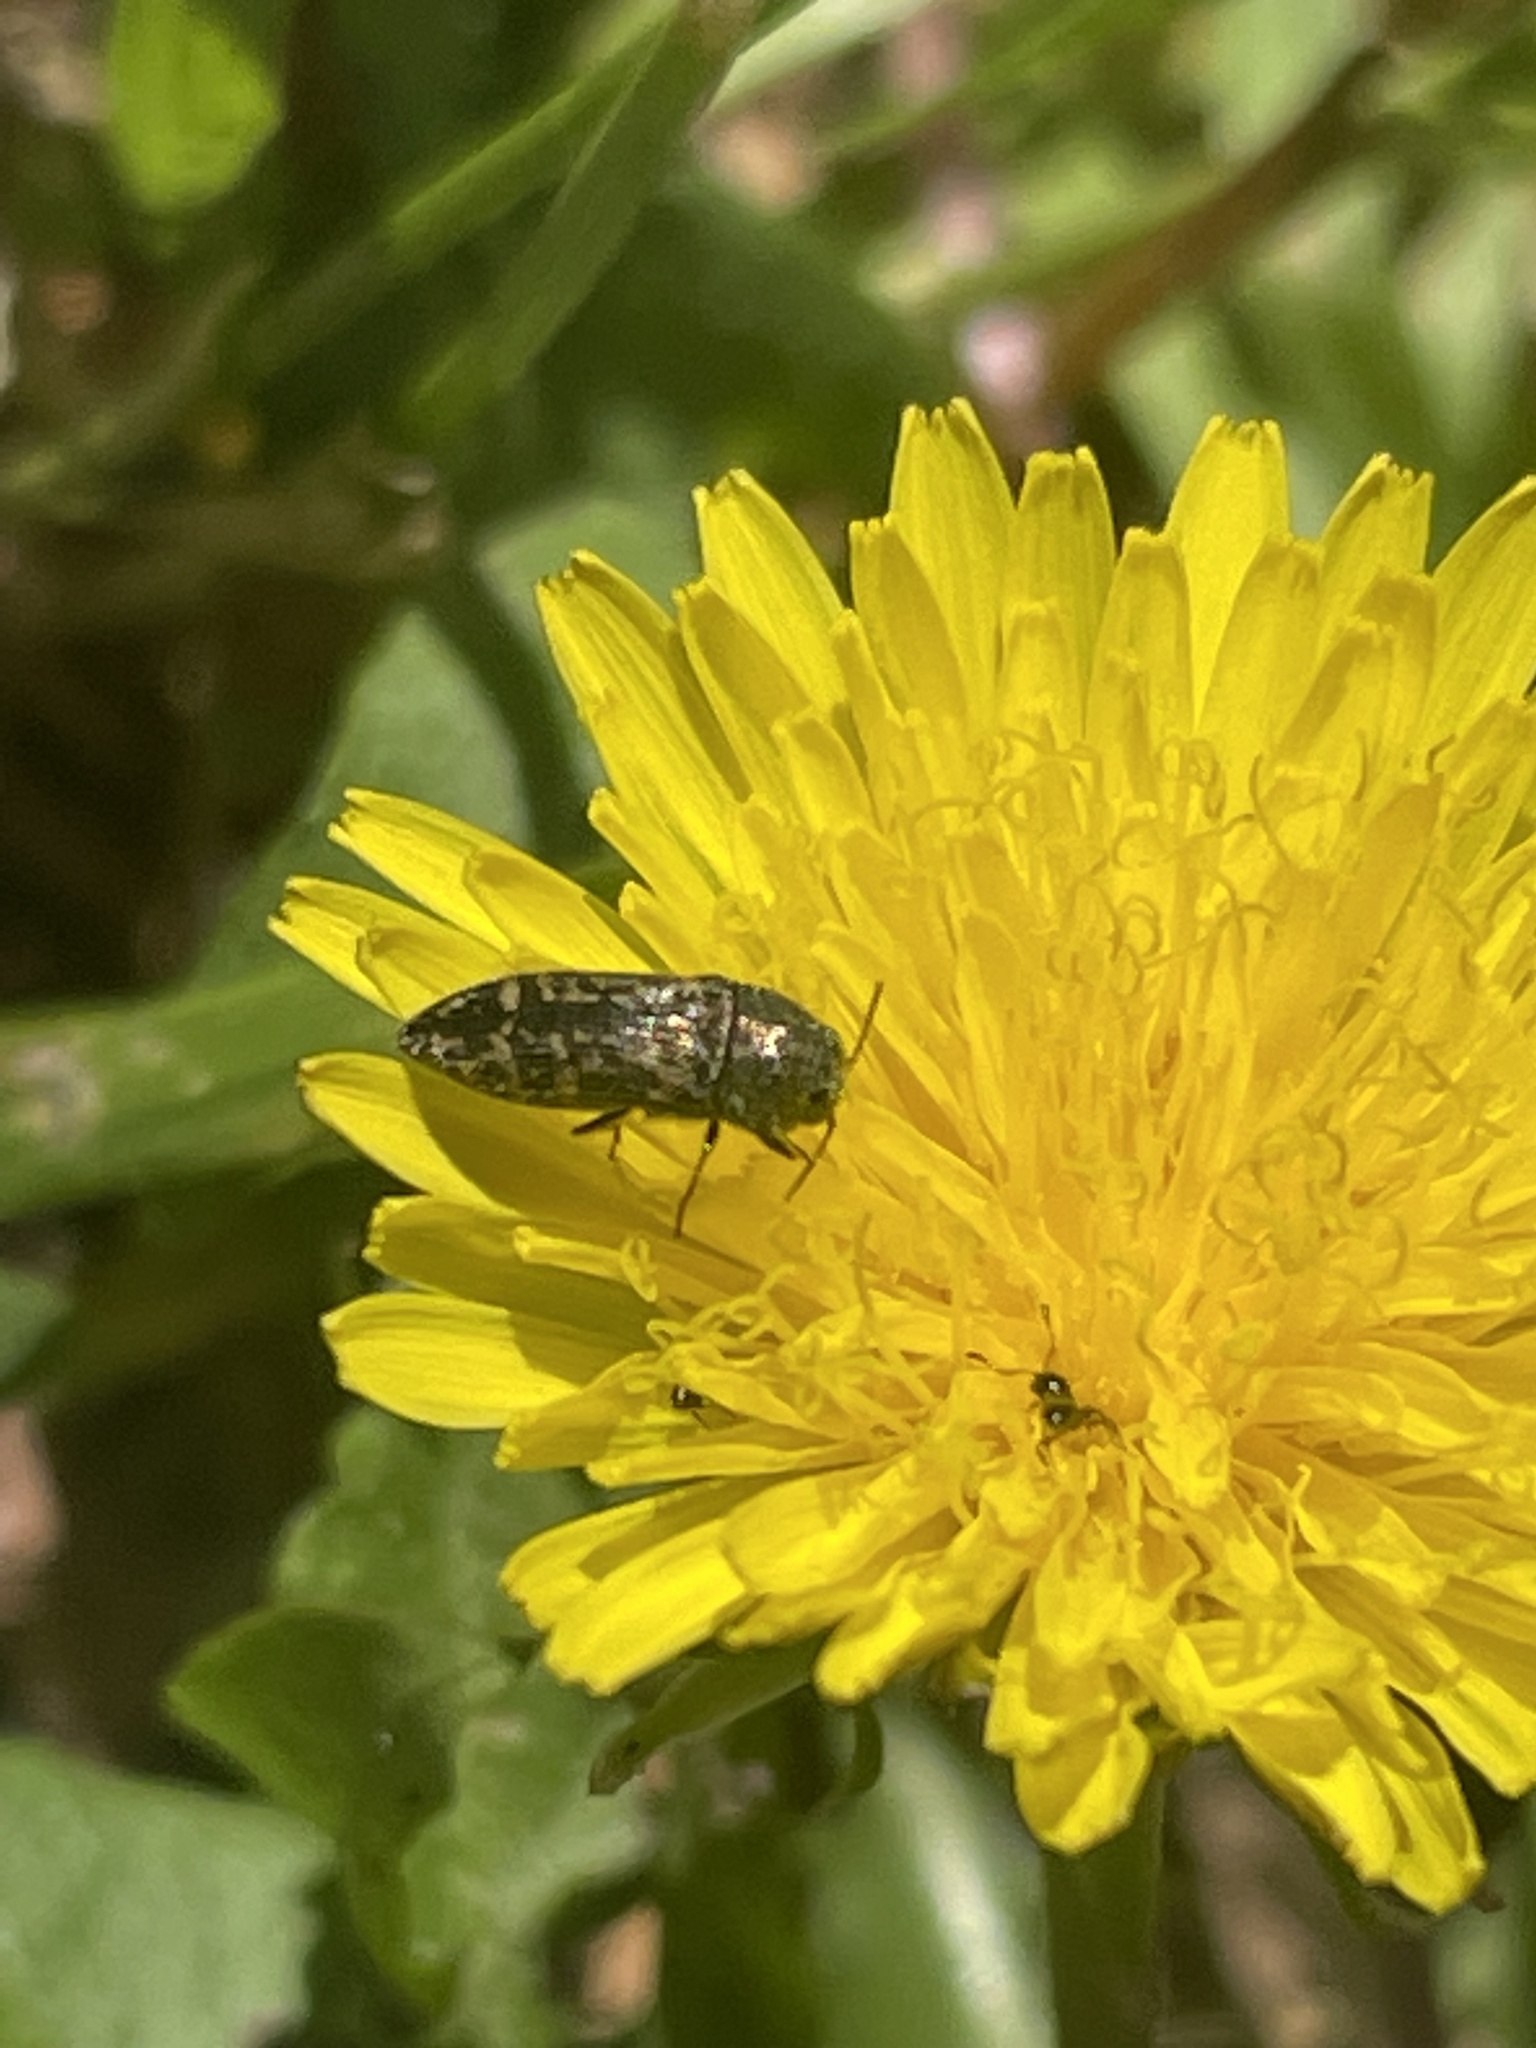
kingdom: Animalia
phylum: Arthropoda
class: Insecta
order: Coleoptera
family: Buprestidae
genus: Acmaeodera
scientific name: Acmaeodera neglecta
